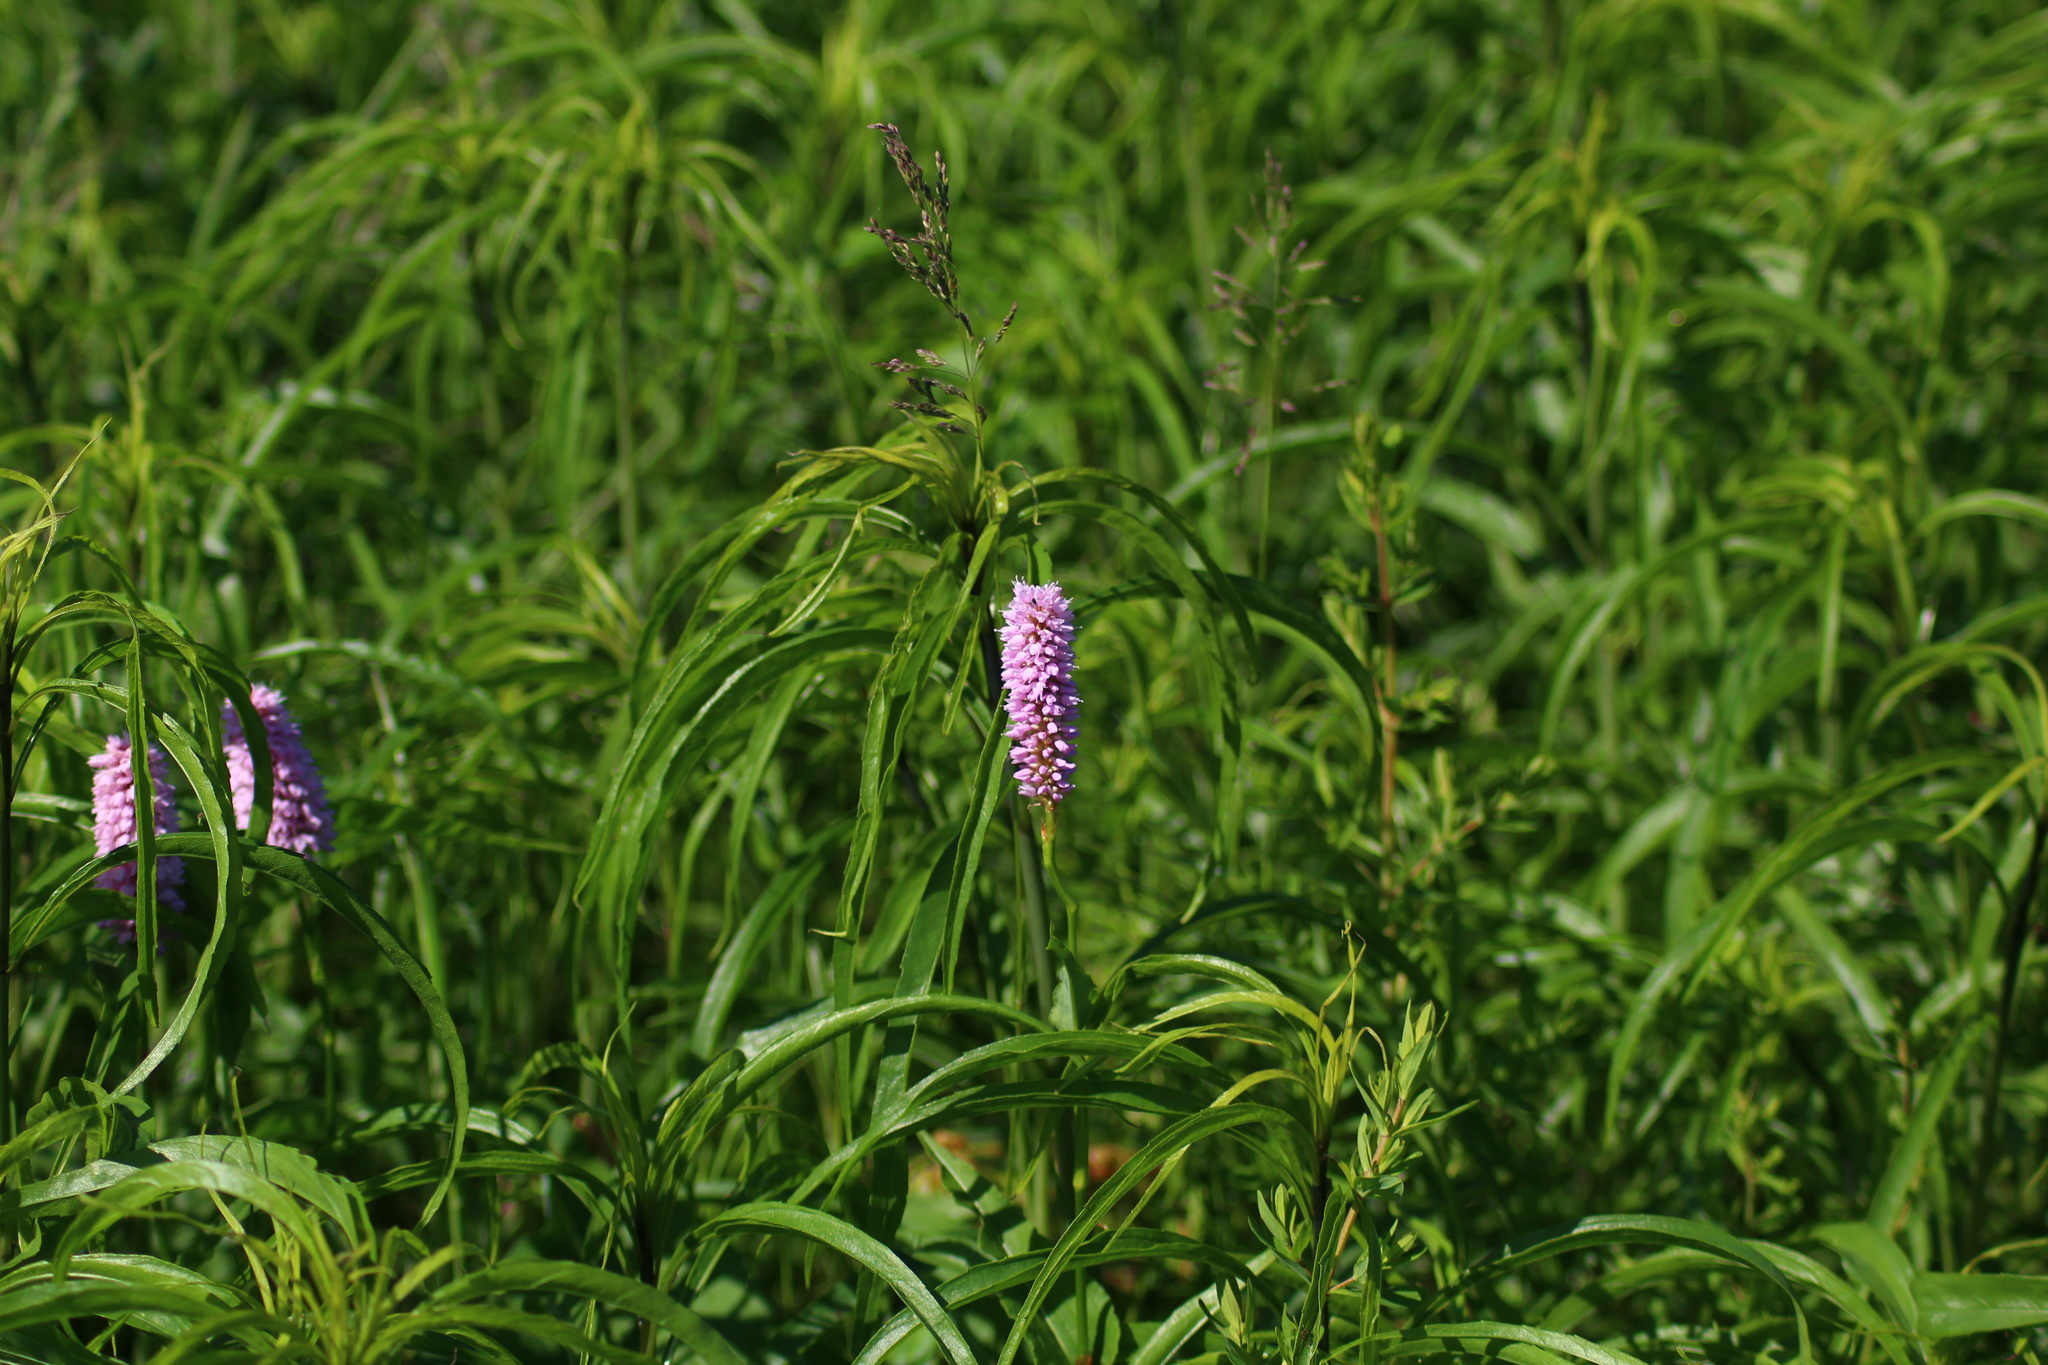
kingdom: Plantae
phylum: Tracheophyta
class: Magnoliopsida
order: Caryophyllales
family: Polygonaceae
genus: Bistorta
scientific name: Bistorta officinalis
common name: Common bistort
